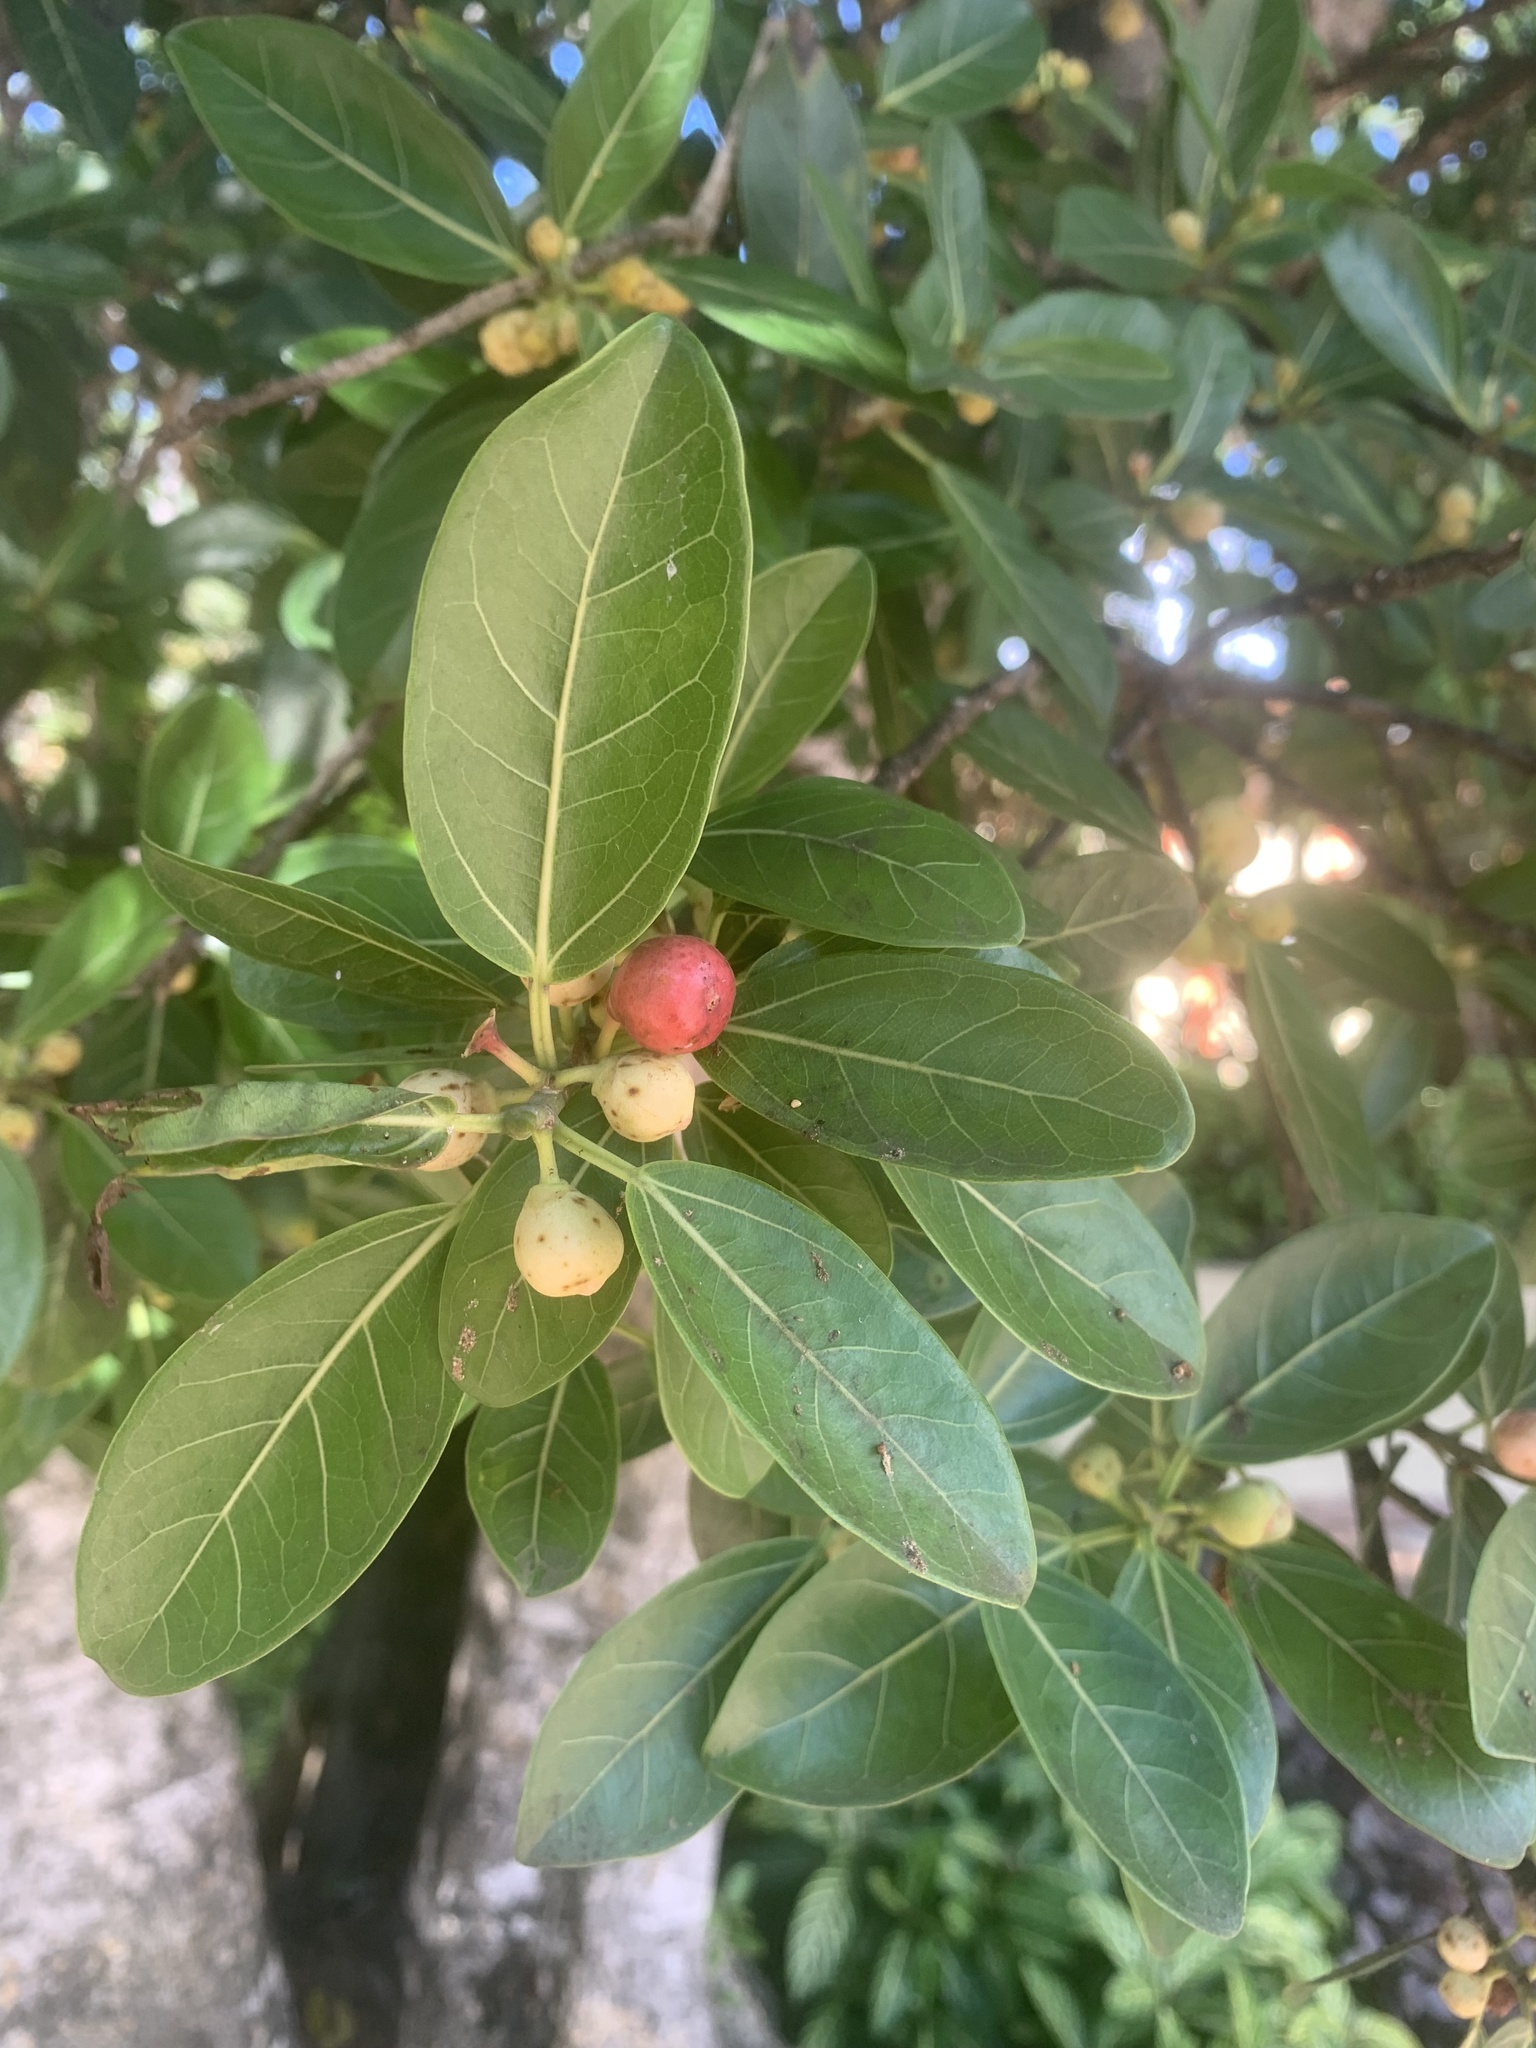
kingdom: Plantae
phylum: Tracheophyta
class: Magnoliopsida
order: Rosales
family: Moraceae
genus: Ficus
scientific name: Ficus crassinervia
